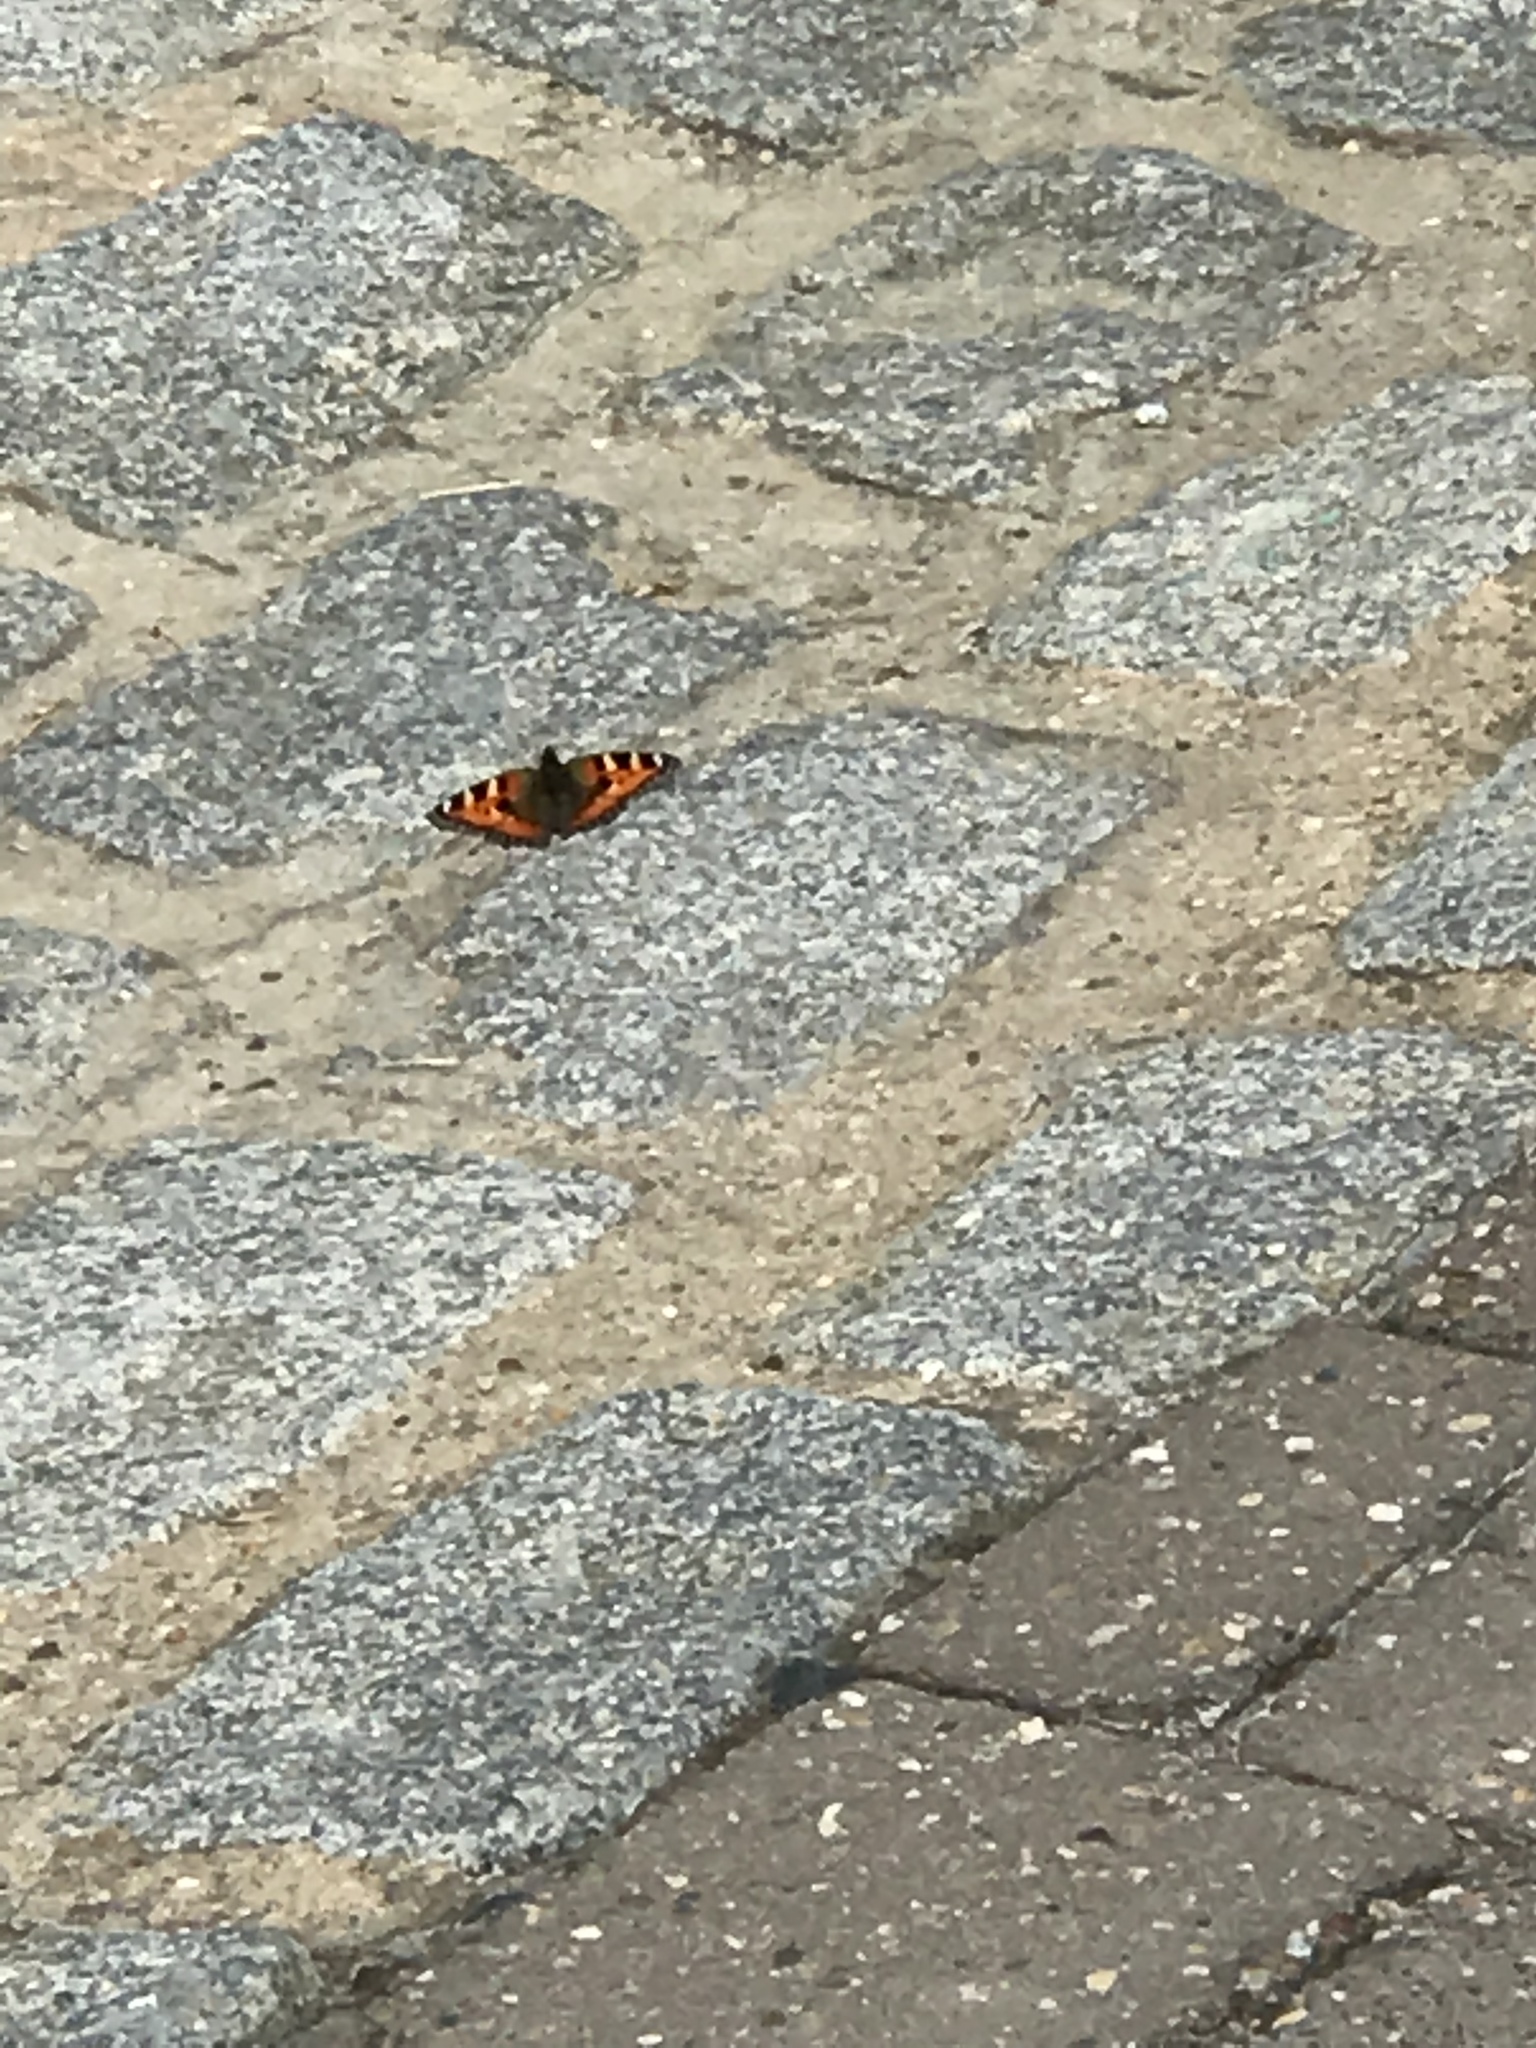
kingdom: Animalia
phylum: Arthropoda
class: Insecta
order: Lepidoptera
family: Nymphalidae
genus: Aglais
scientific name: Aglais urticae
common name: Small tortoiseshell
